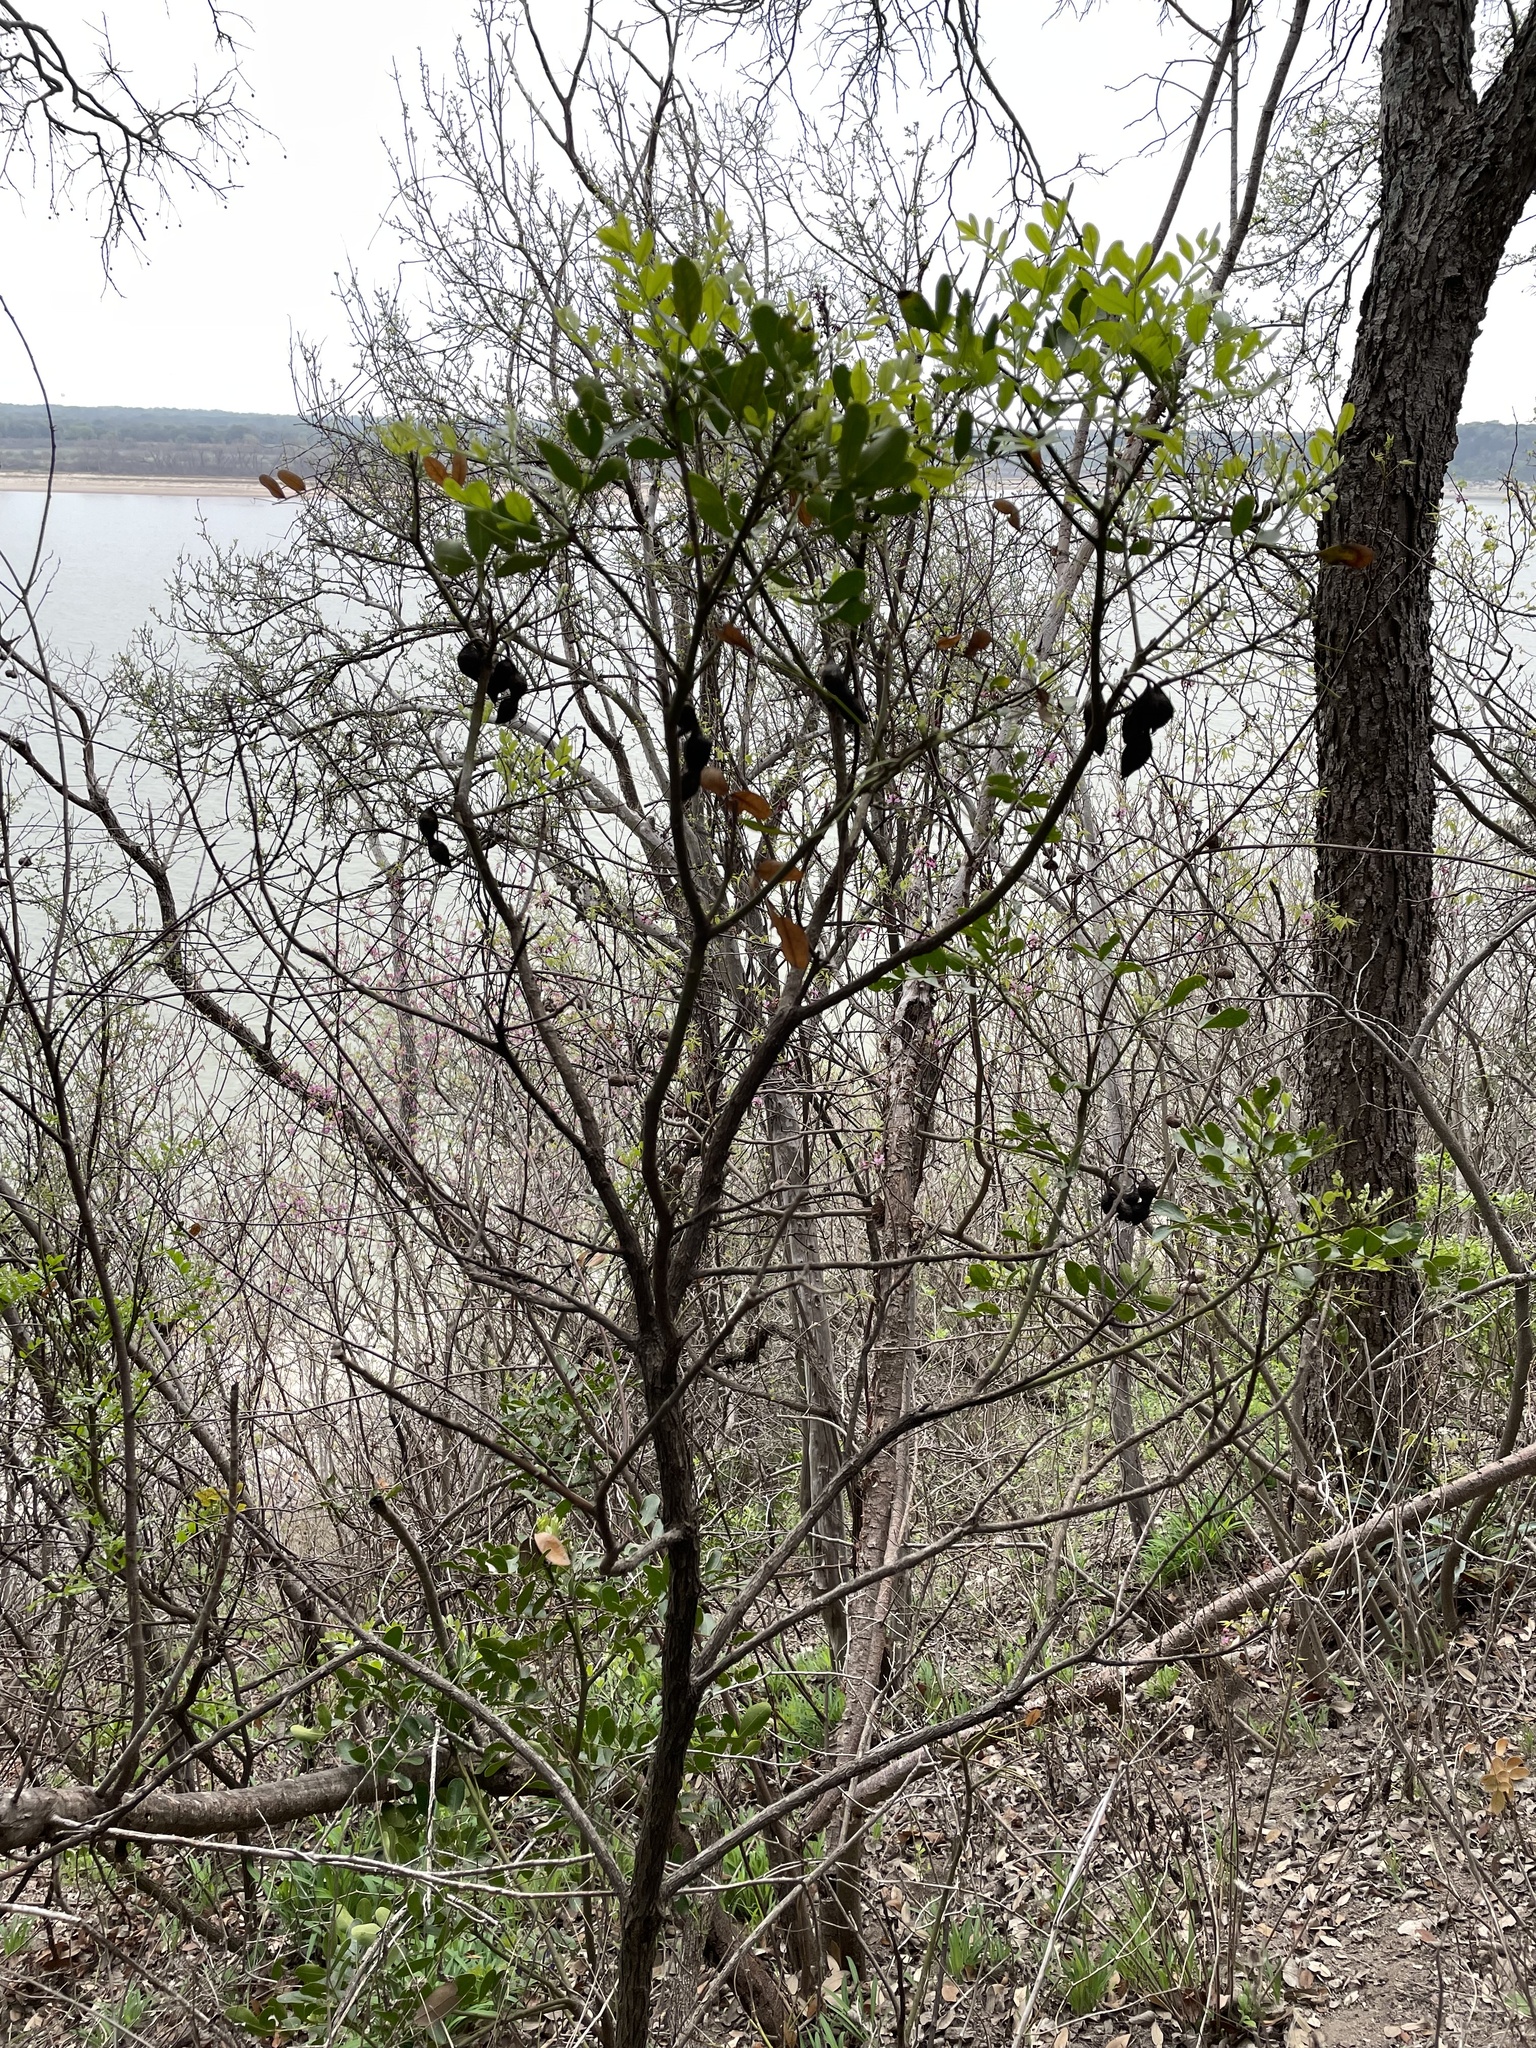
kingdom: Plantae
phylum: Tracheophyta
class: Magnoliopsida
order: Fabales
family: Fabaceae
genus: Dermatophyllum
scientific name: Dermatophyllum secundiflorum
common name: Texas-mountain-laurel
